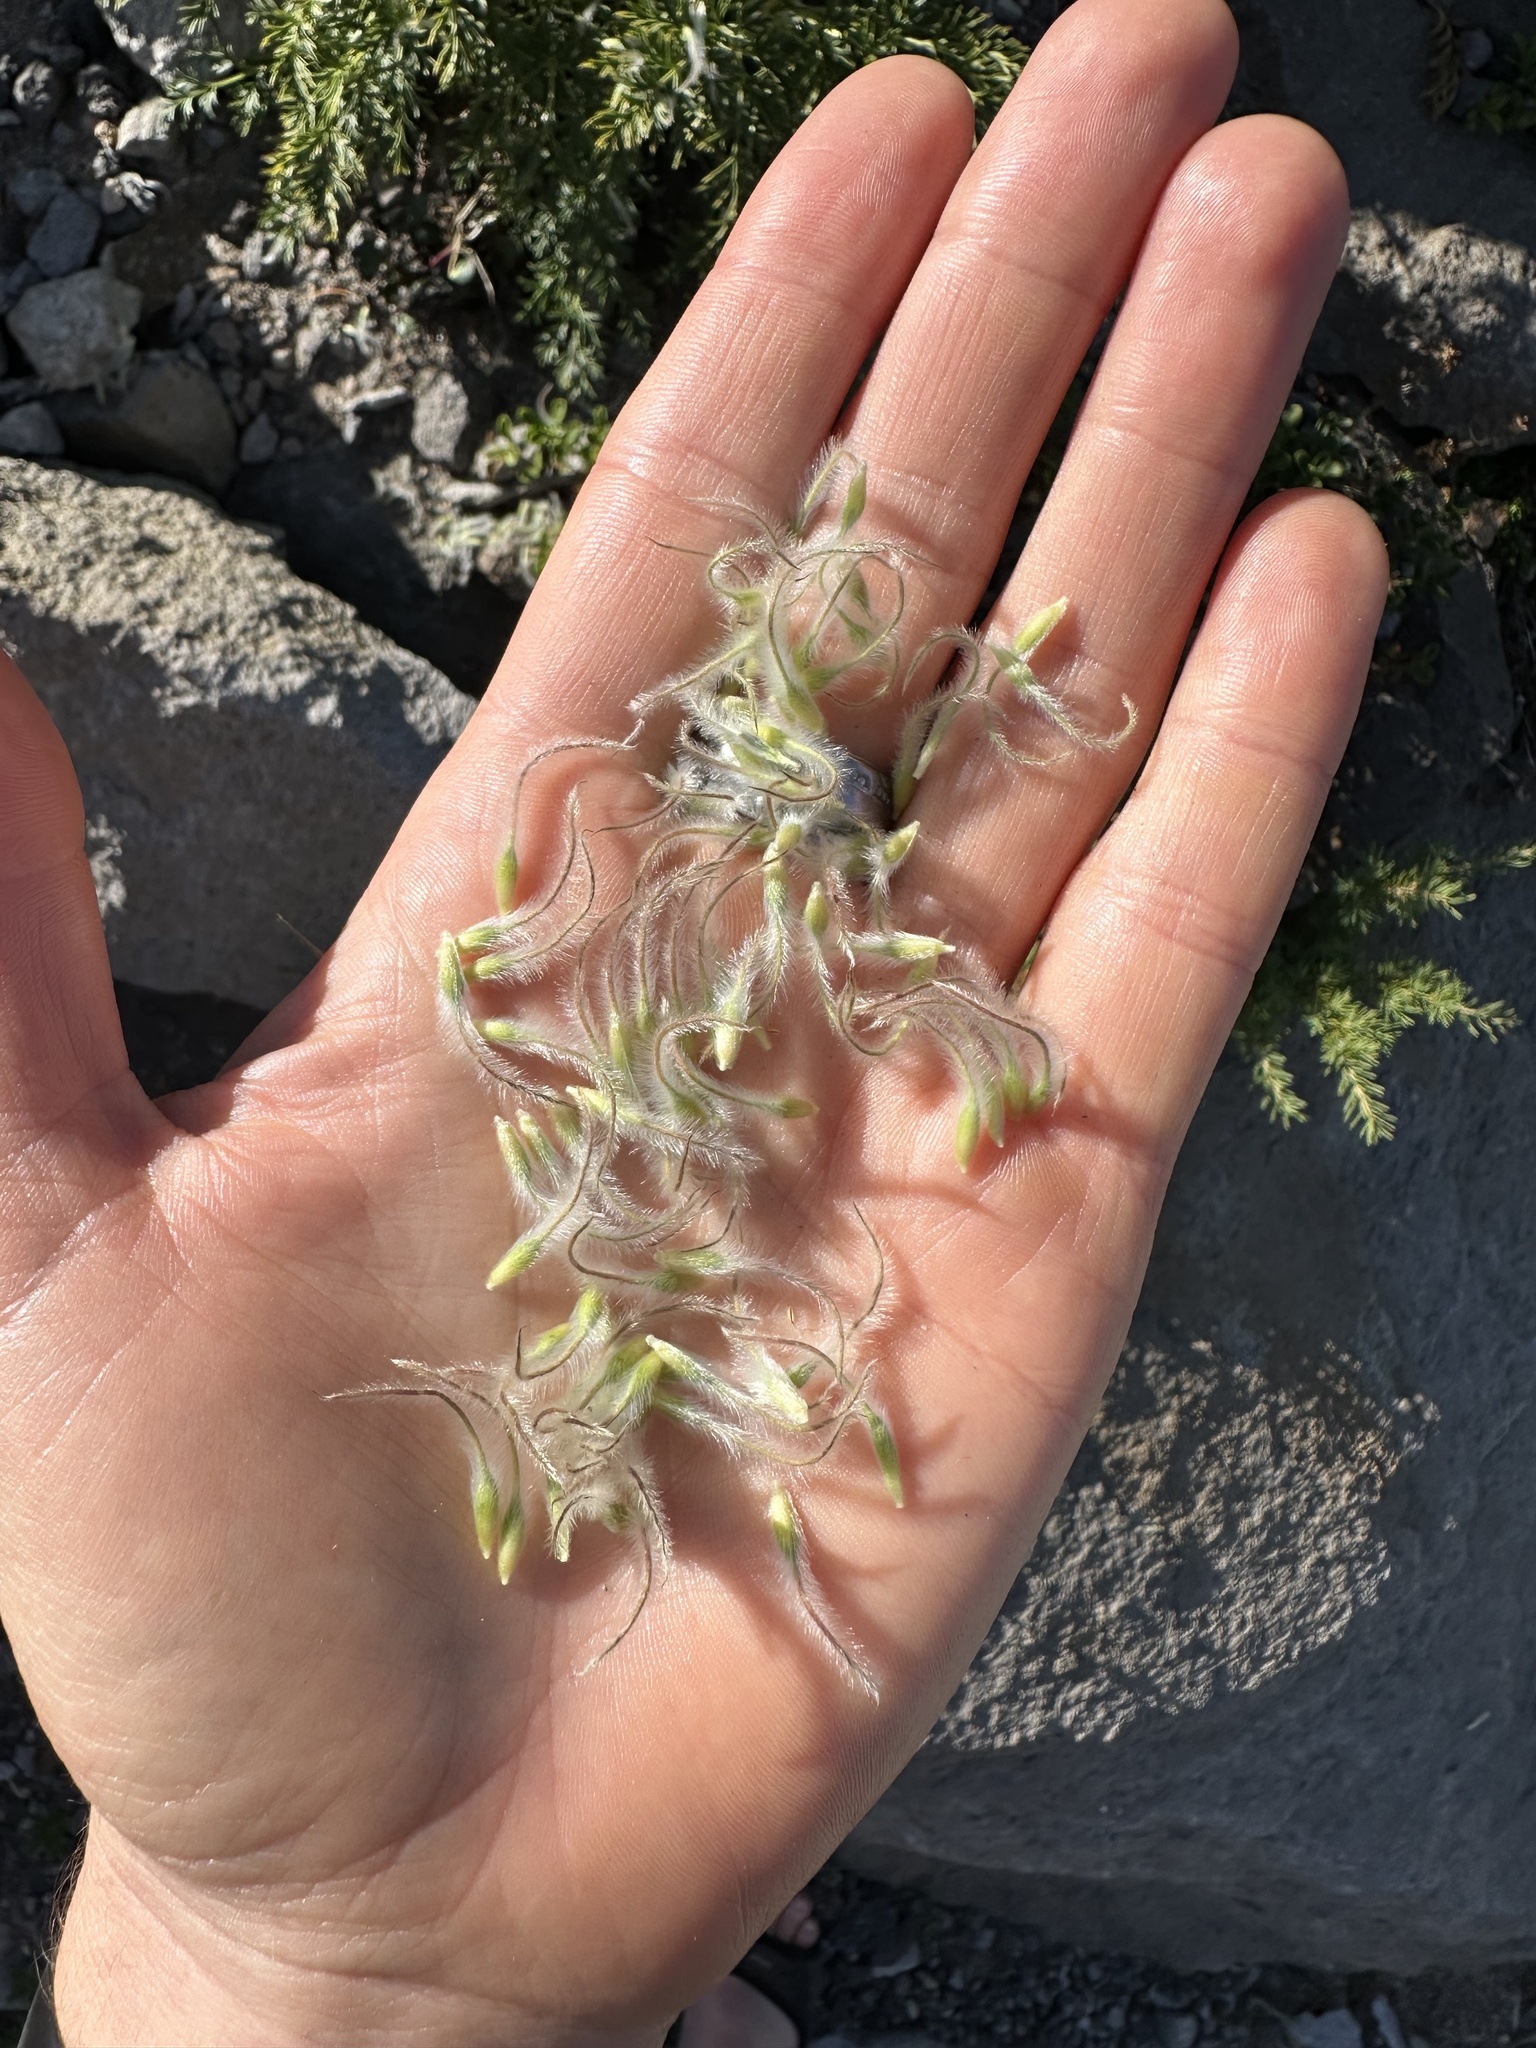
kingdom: Plantae
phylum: Tracheophyta
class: Magnoliopsida
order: Ranunculales
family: Ranunculaceae
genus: Pulsatilla
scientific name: Pulsatilla occidentalis
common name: Mountain pasqueflower
